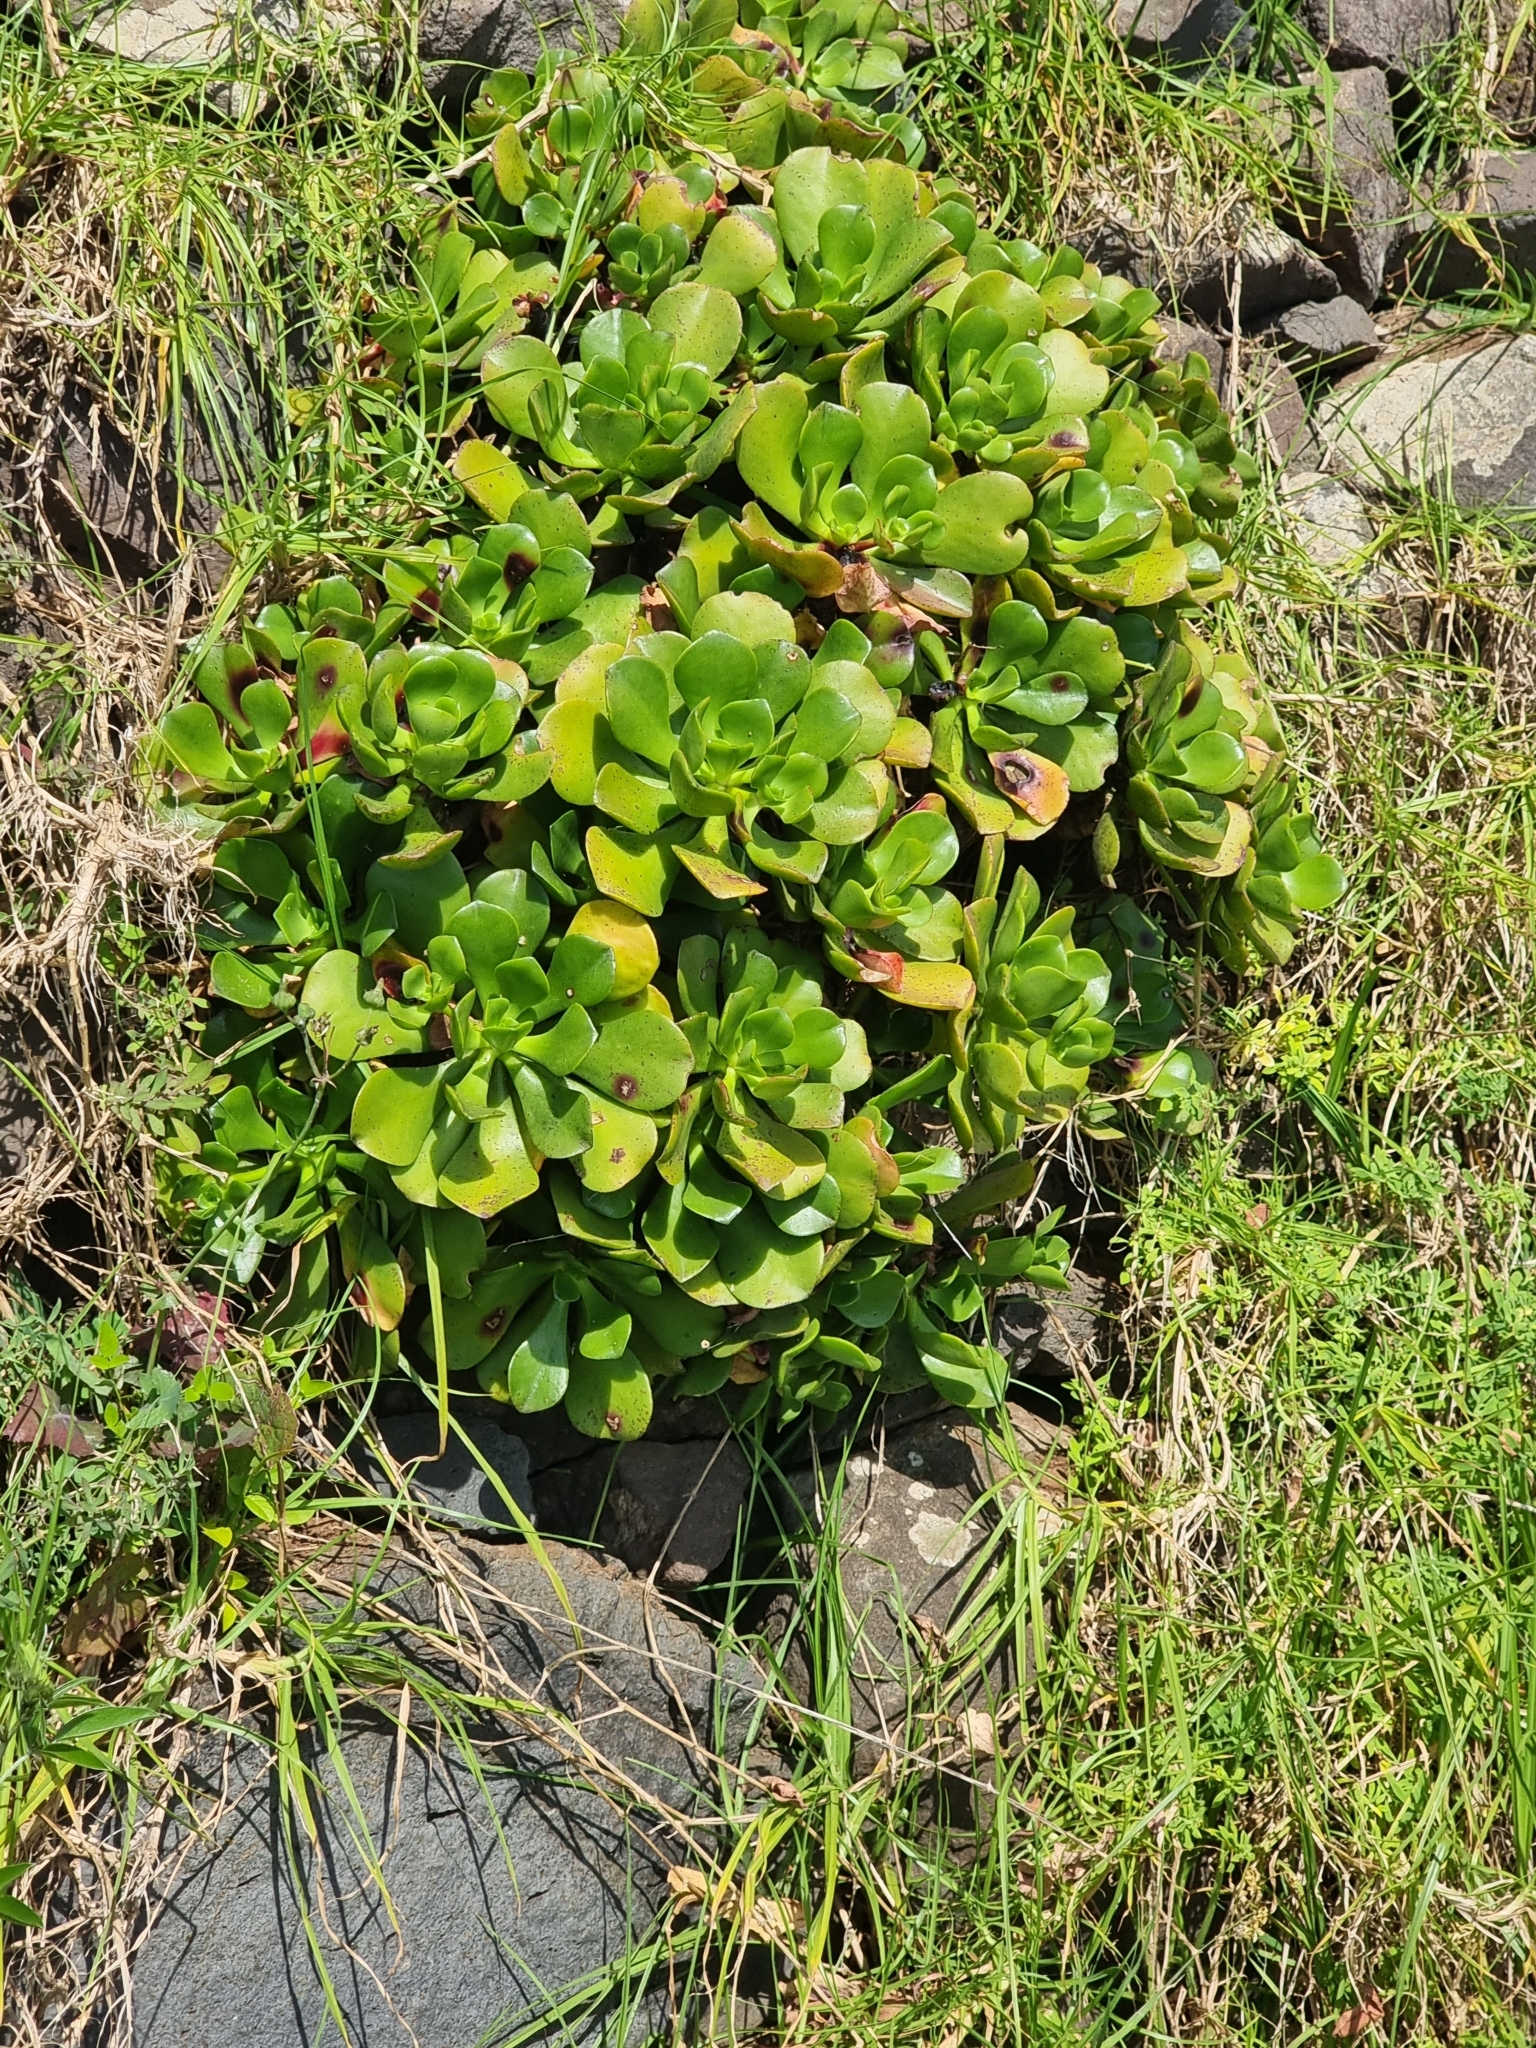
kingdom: Plantae
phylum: Tracheophyta
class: Magnoliopsida
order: Saxifragales
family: Crassulaceae
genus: Aeonium
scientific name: Aeonium glutinosum
